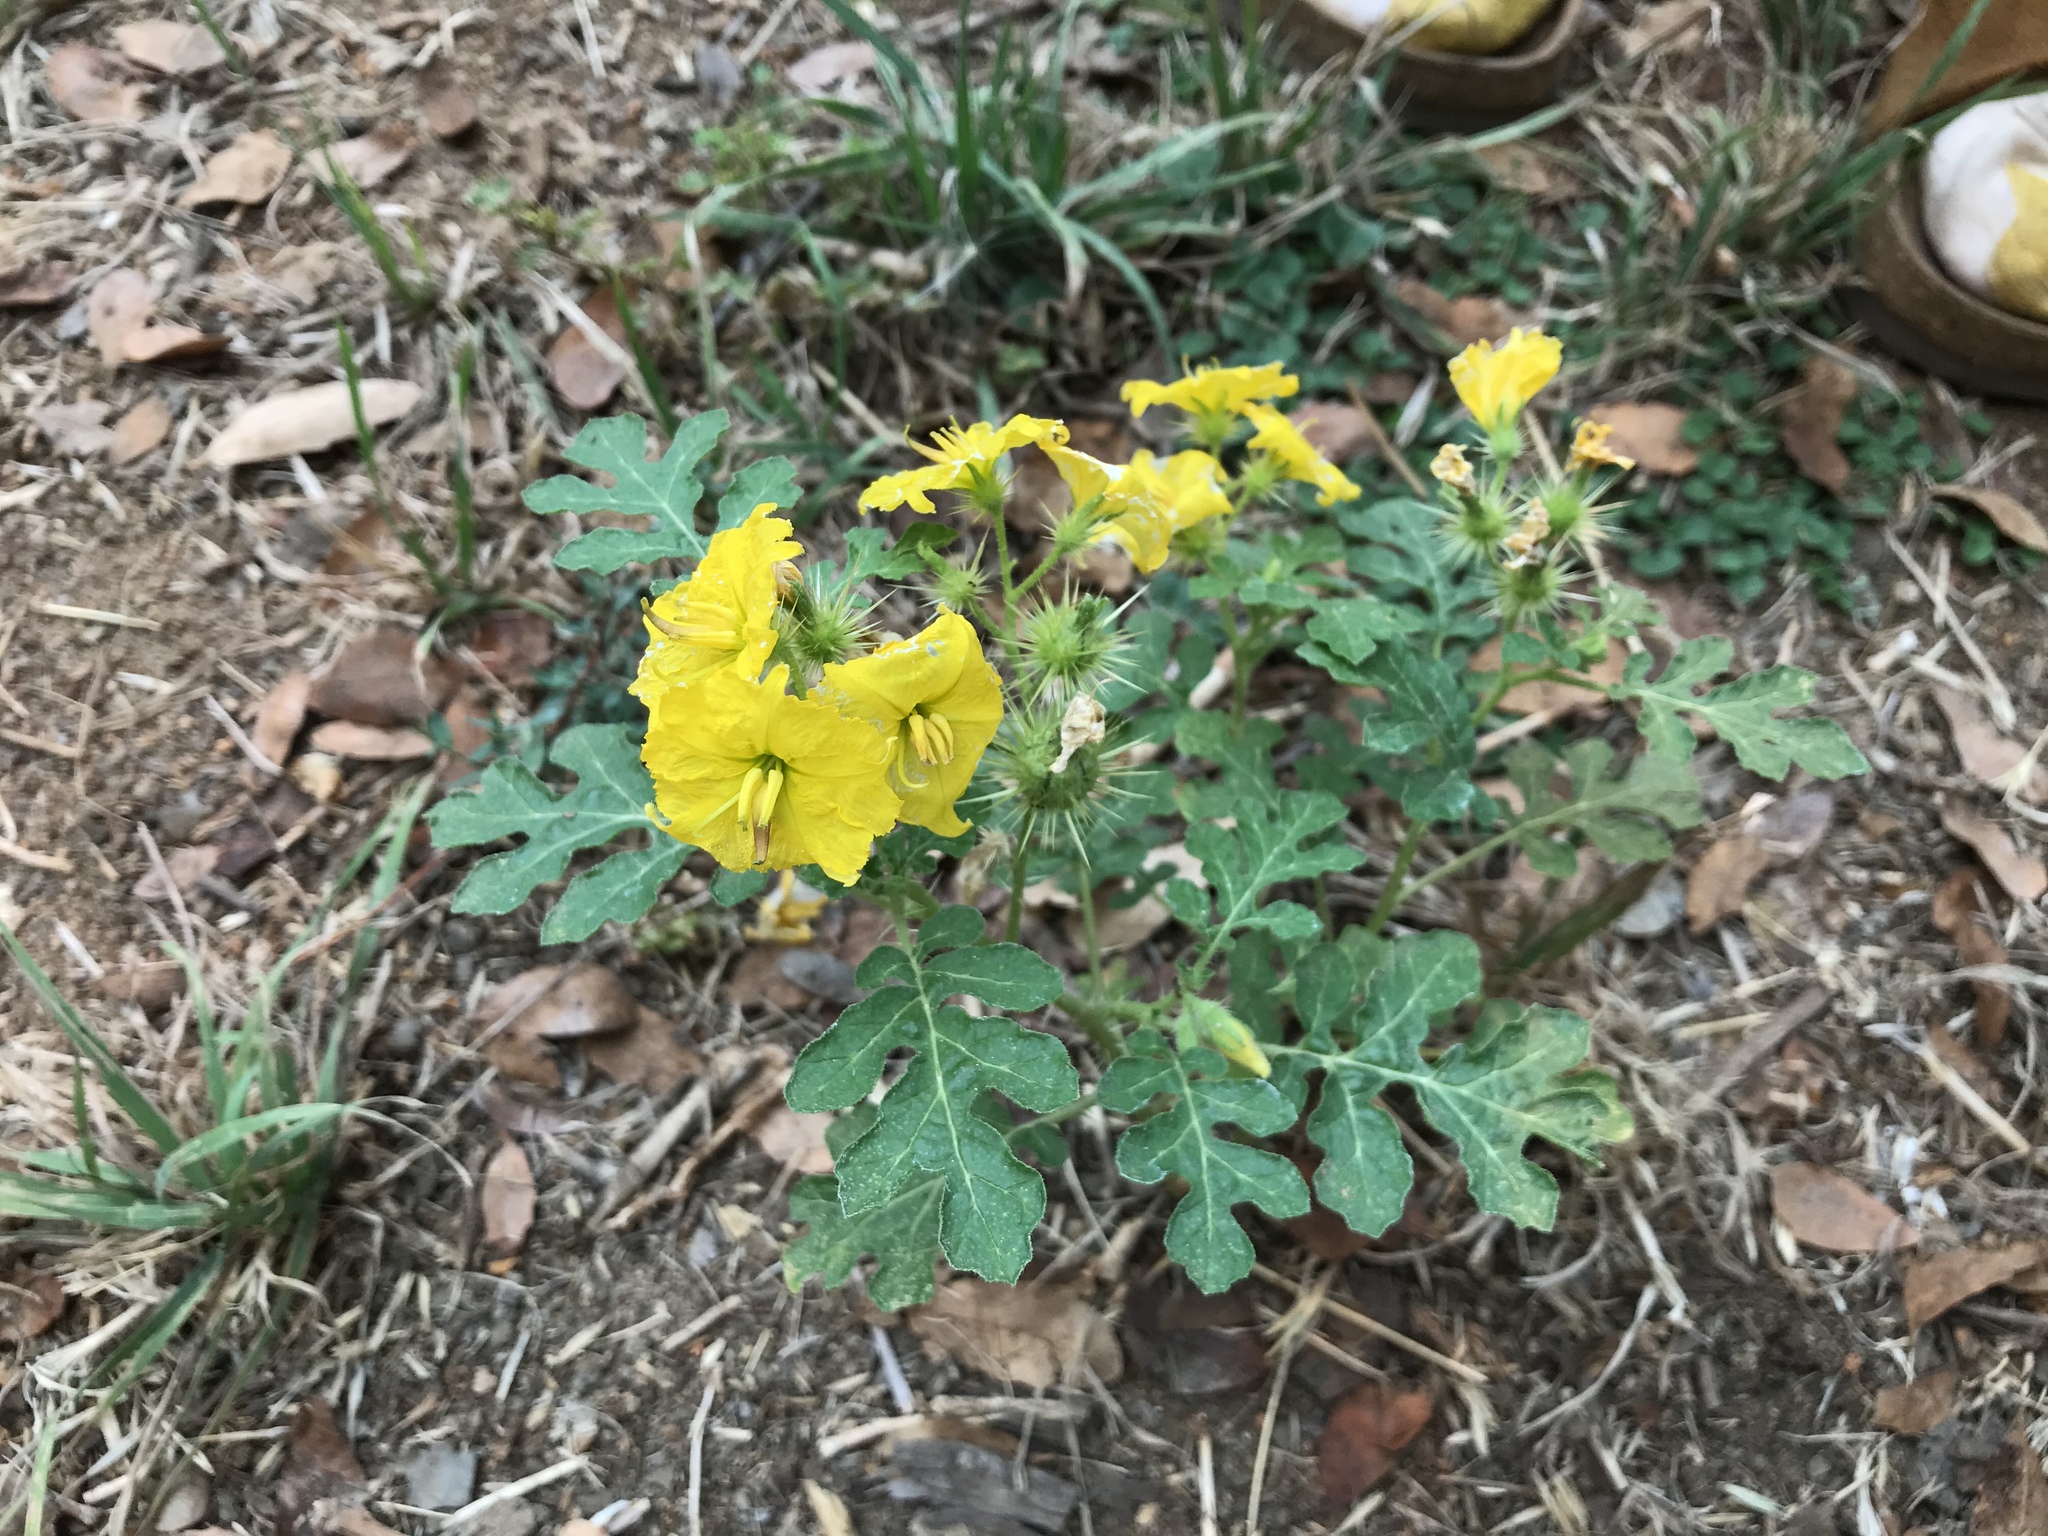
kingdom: Plantae
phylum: Tracheophyta
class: Magnoliopsida
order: Solanales
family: Solanaceae
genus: Solanum
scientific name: Solanum angustifolium
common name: Buffalobur nightshade
